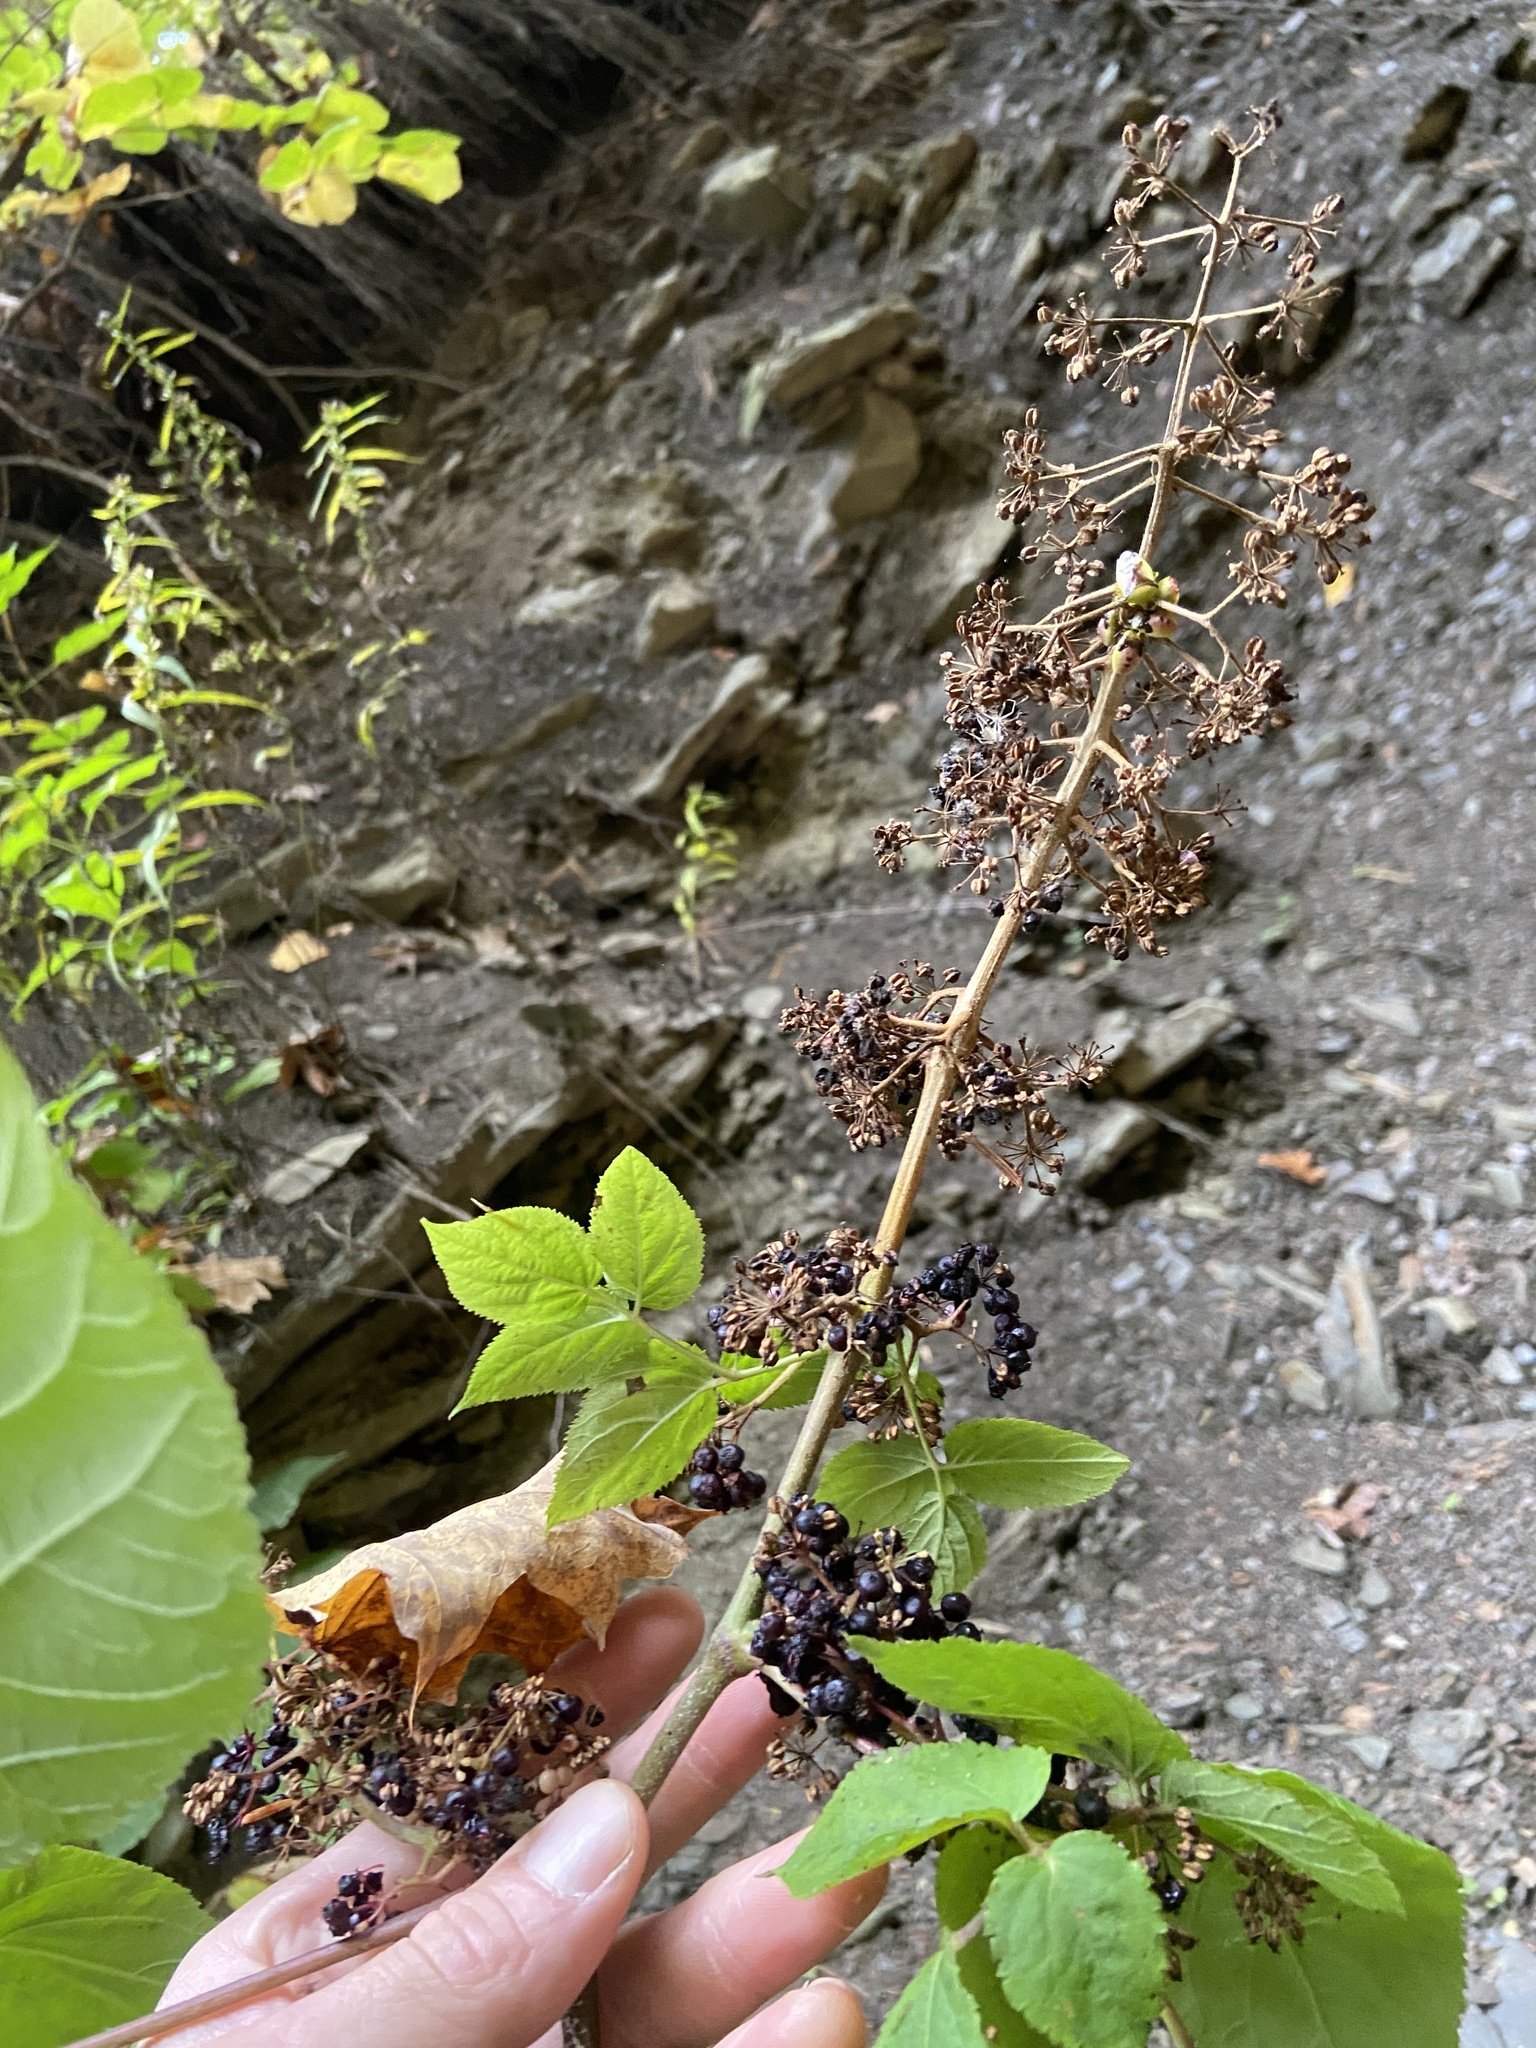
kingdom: Plantae
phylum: Tracheophyta
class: Magnoliopsida
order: Apiales
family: Araliaceae
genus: Aralia
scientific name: Aralia racemosa
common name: American-spikenard
